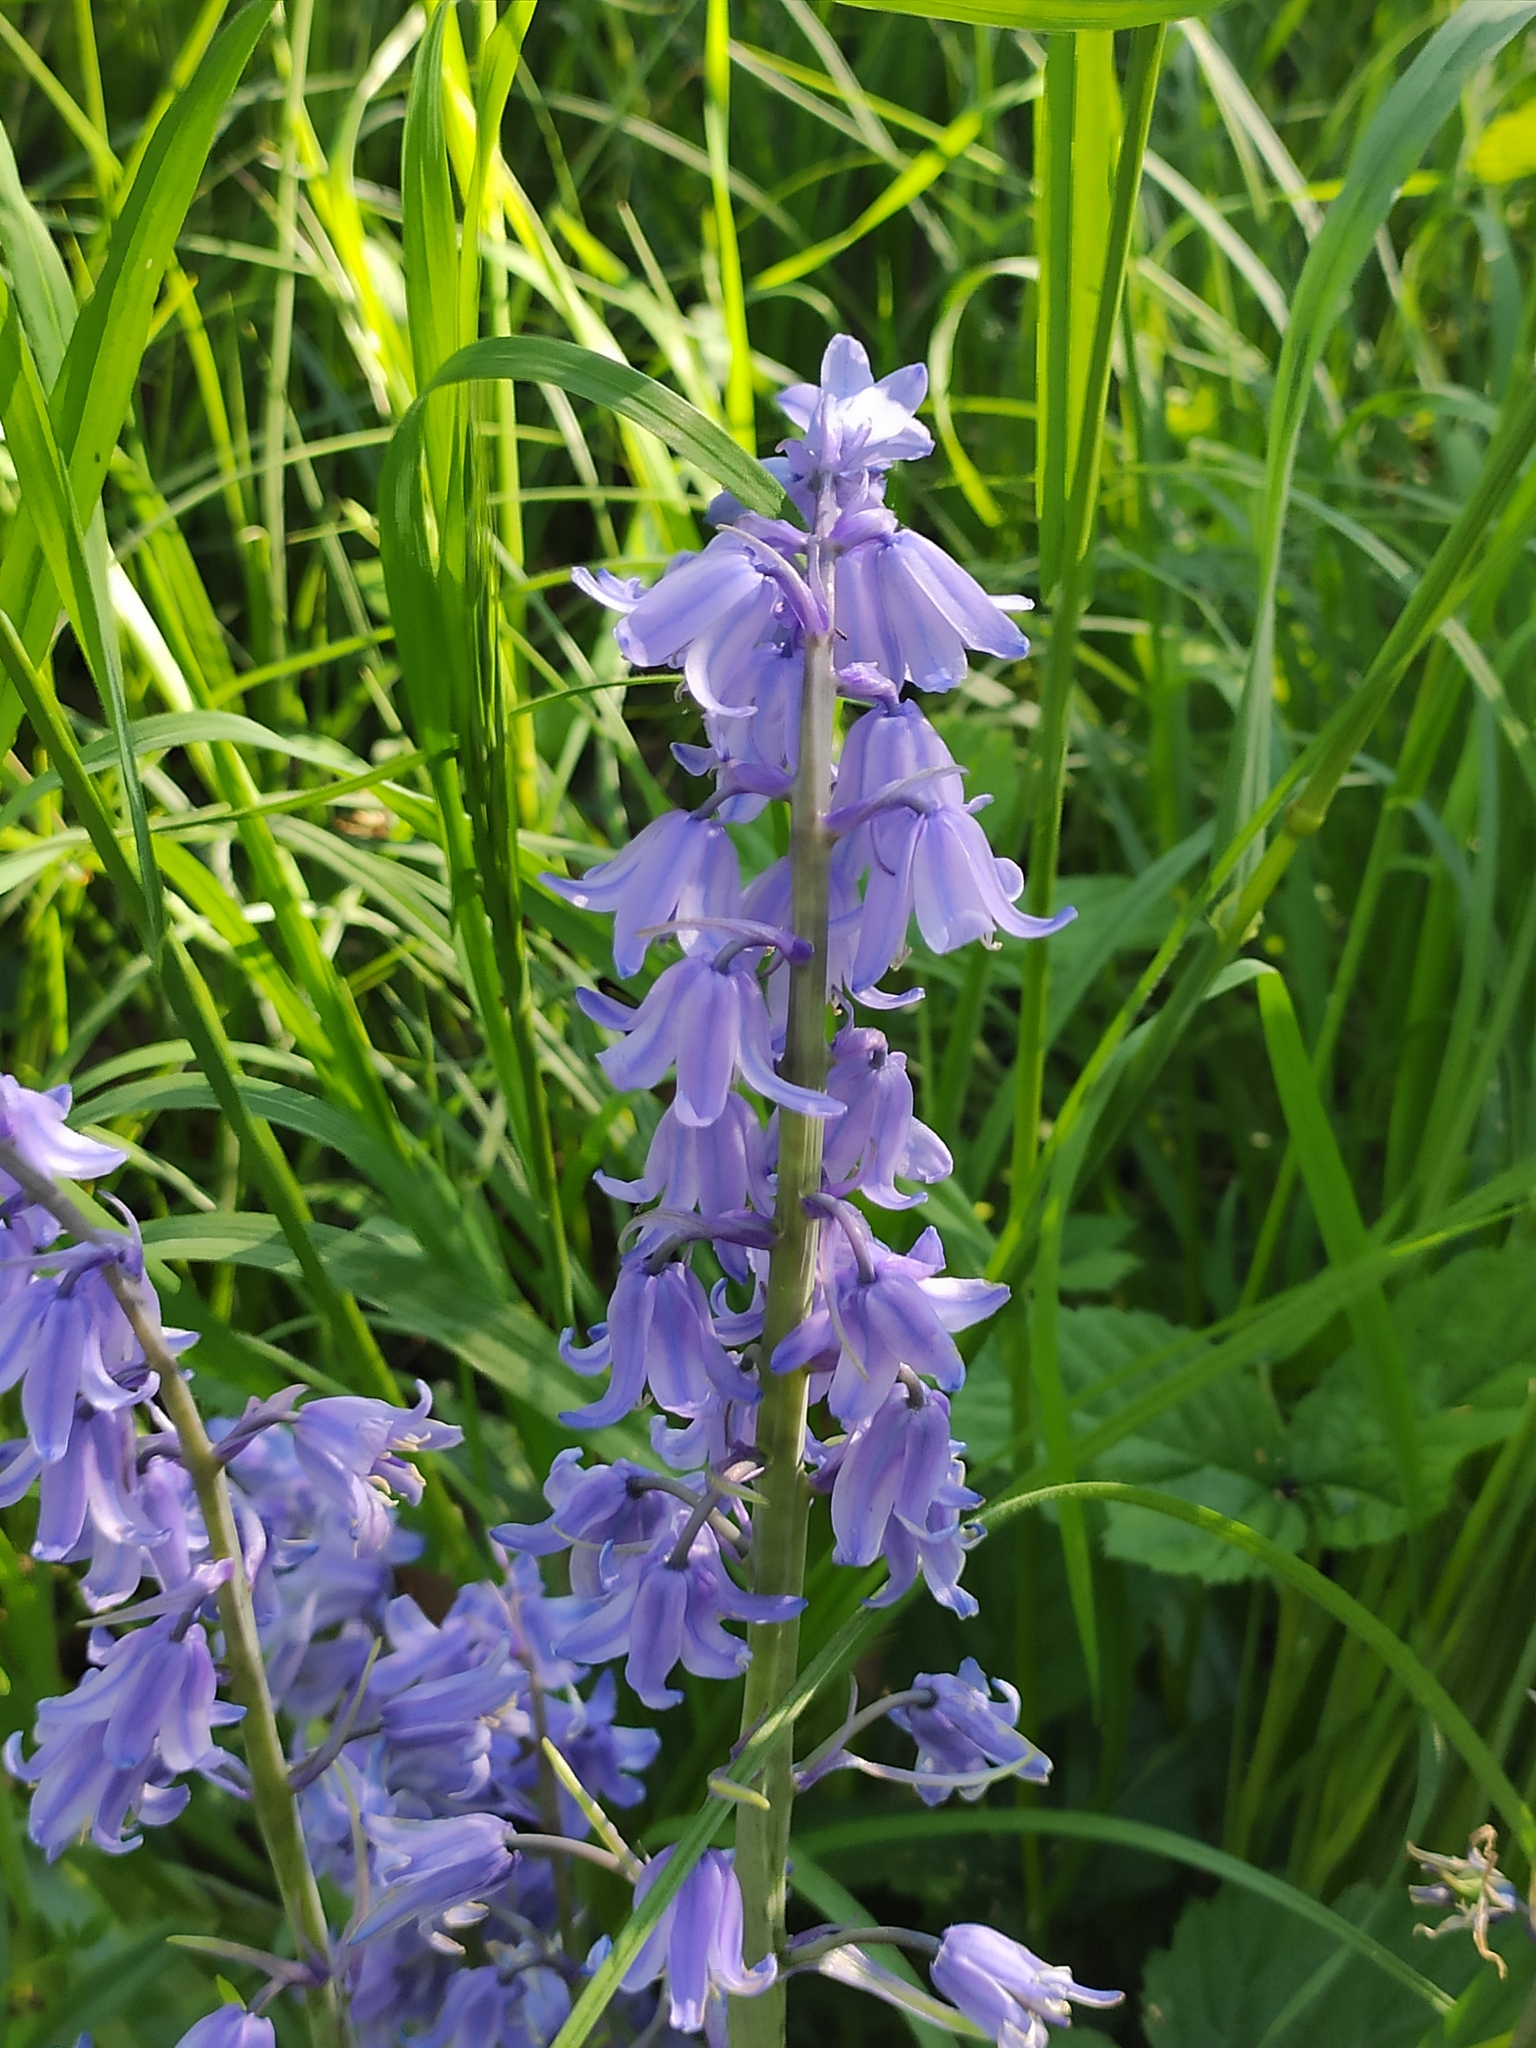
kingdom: Plantae
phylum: Tracheophyta
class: Liliopsida
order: Asparagales
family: Asparagaceae
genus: Hyacinthoides
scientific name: Hyacinthoides non-scripta
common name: Bluebell
